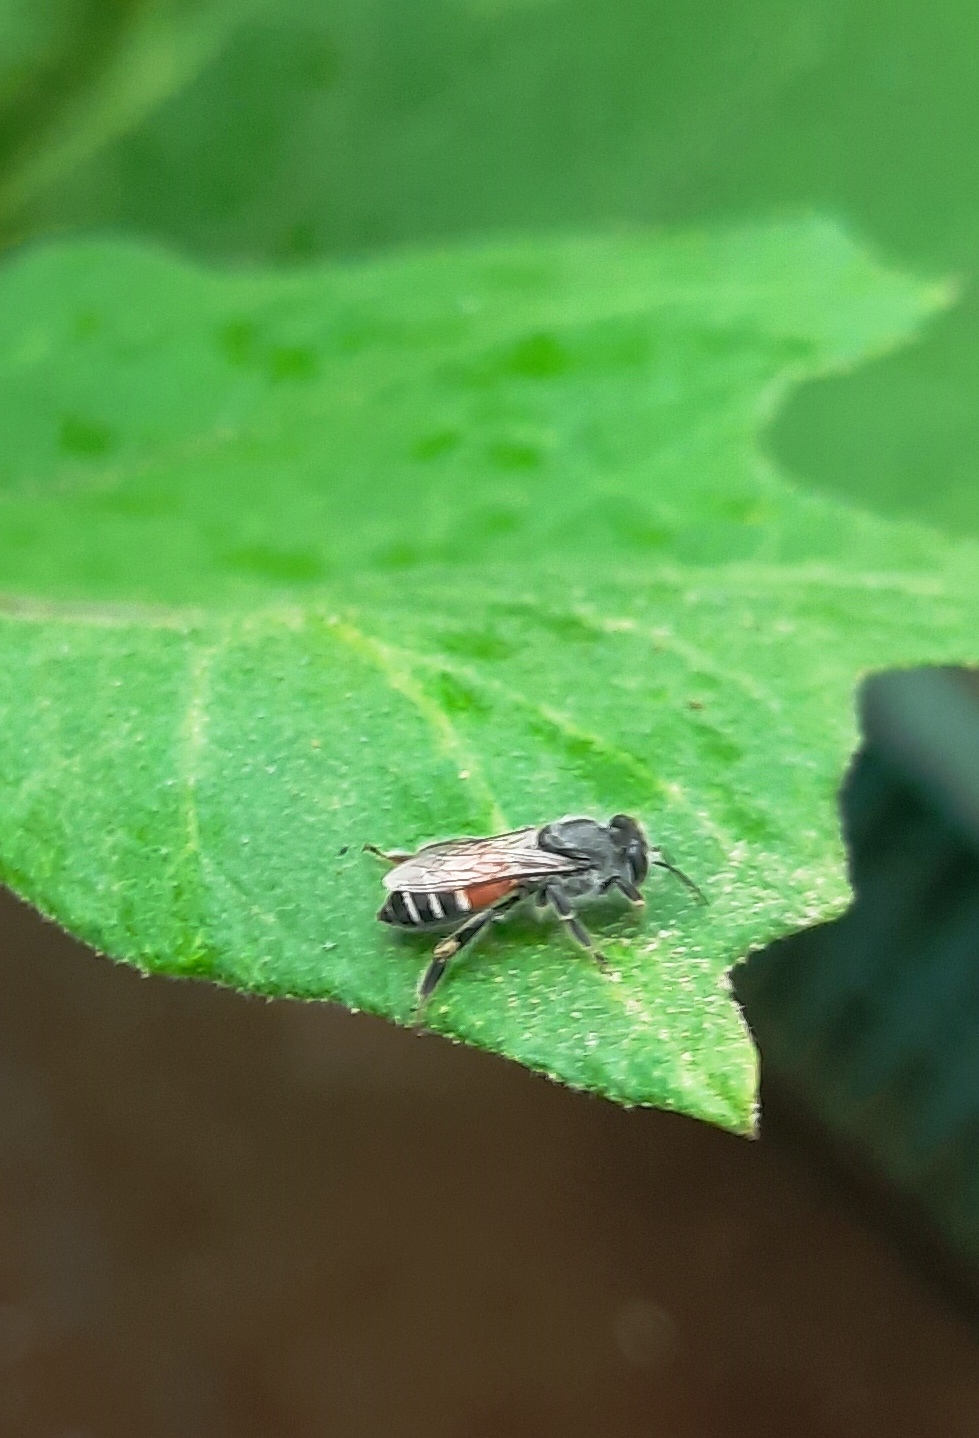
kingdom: Animalia
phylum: Arthropoda
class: Insecta
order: Hymenoptera
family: Apidae
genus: Apis
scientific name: Apis florea
